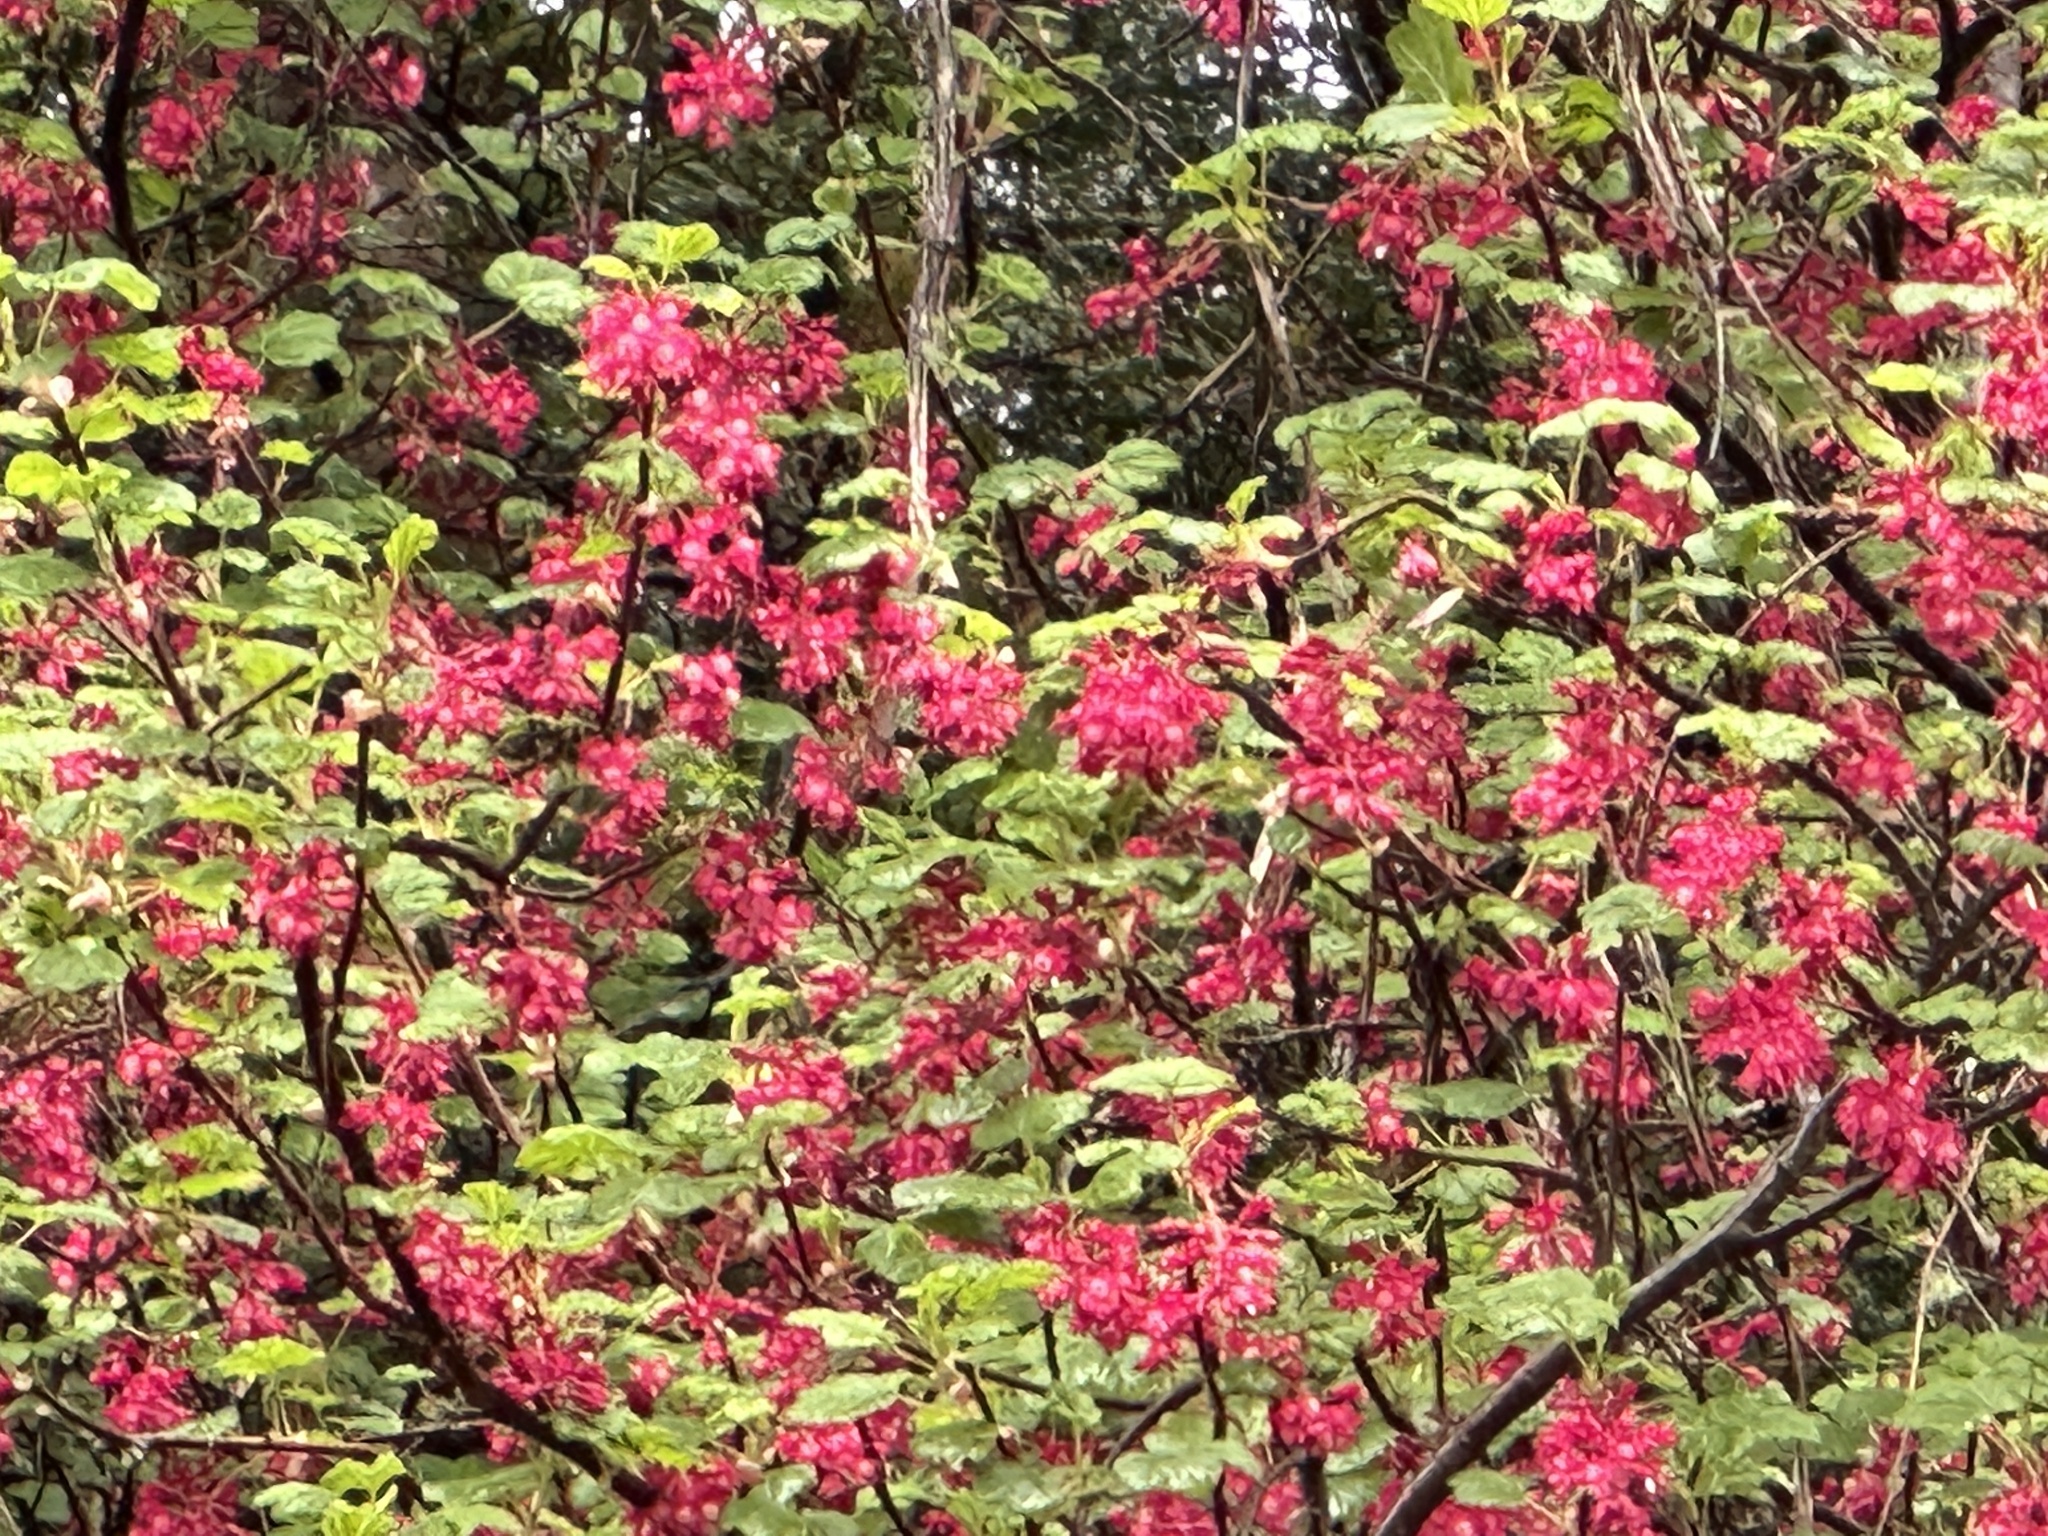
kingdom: Plantae
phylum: Tracheophyta
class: Magnoliopsida
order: Saxifragales
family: Grossulariaceae
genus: Ribes
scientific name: Ribes sanguineum
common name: Flowering currant
